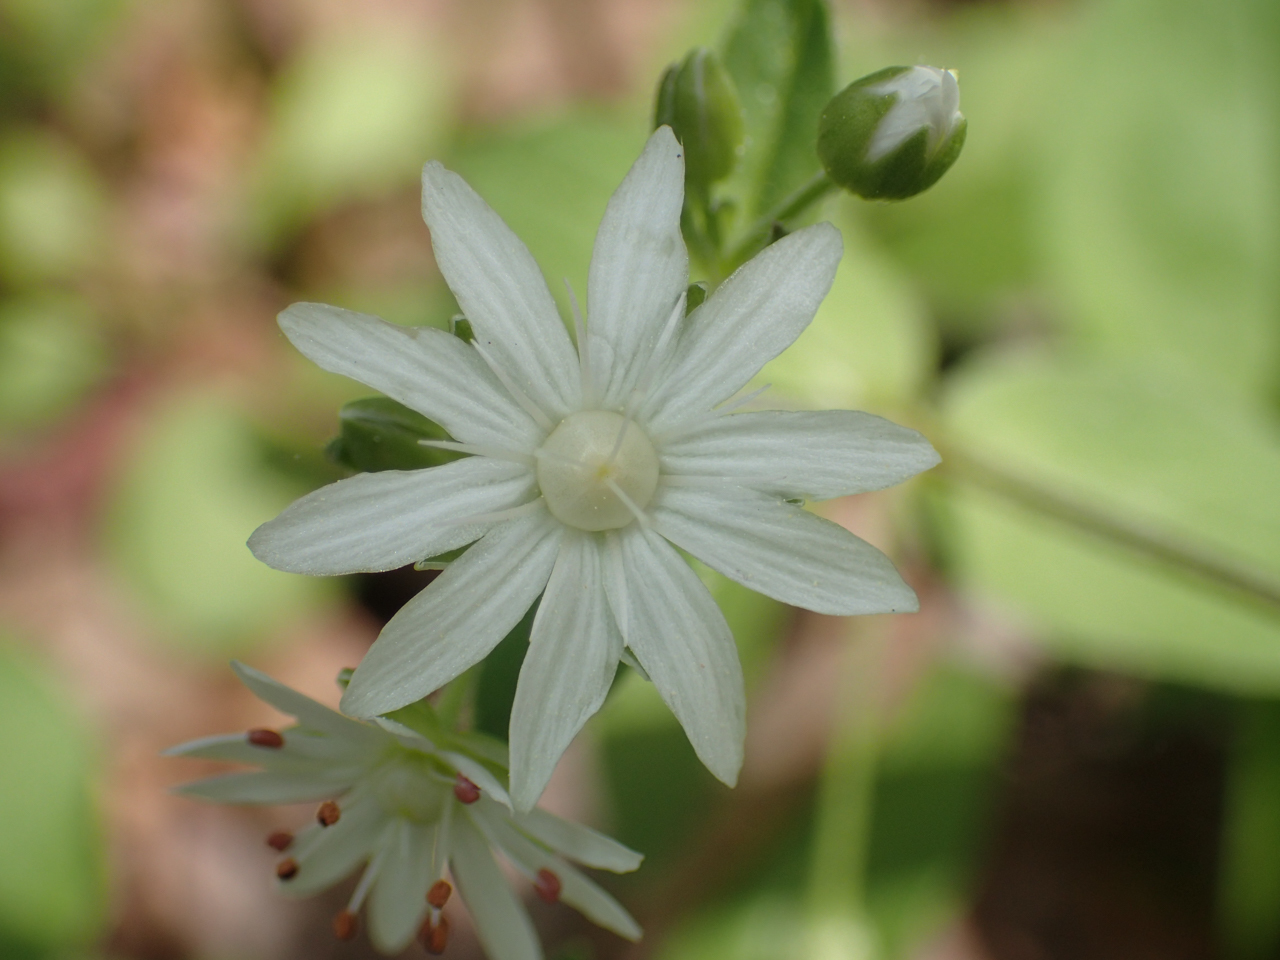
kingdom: Plantae
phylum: Tracheophyta
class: Magnoliopsida
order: Caryophyllales
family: Caryophyllaceae
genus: Stellaria
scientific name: Stellaria pubera
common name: Star chickweed
